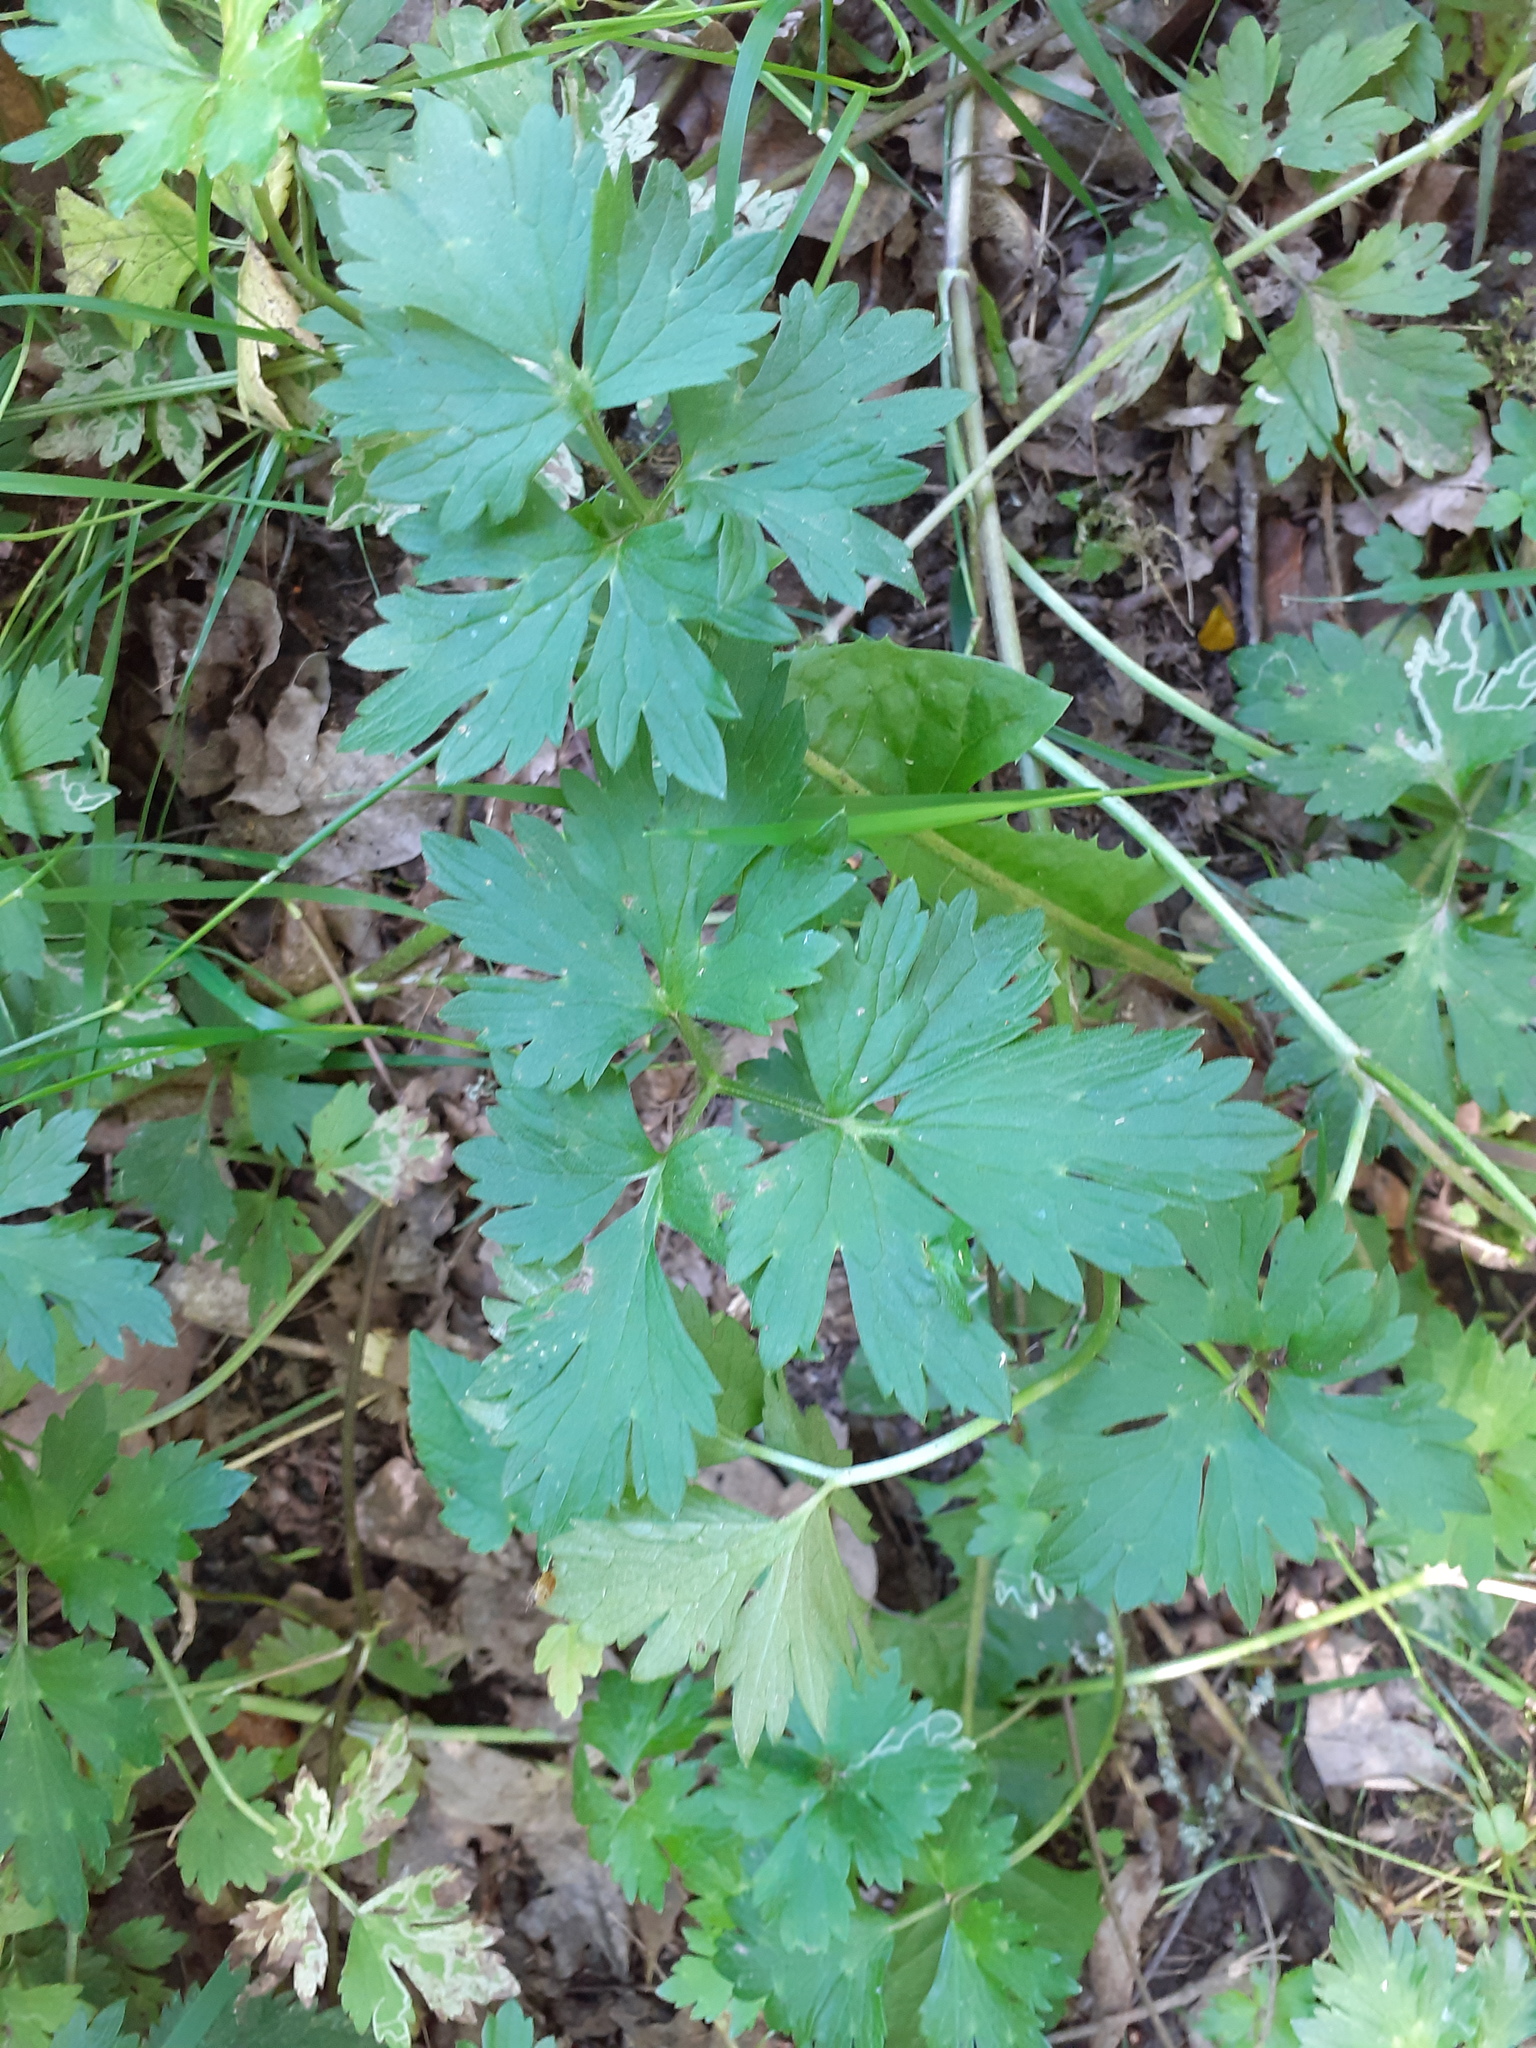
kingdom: Plantae
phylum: Tracheophyta
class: Magnoliopsida
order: Ranunculales
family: Ranunculaceae
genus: Ranunculus
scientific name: Ranunculus repens
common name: Creeping buttercup
